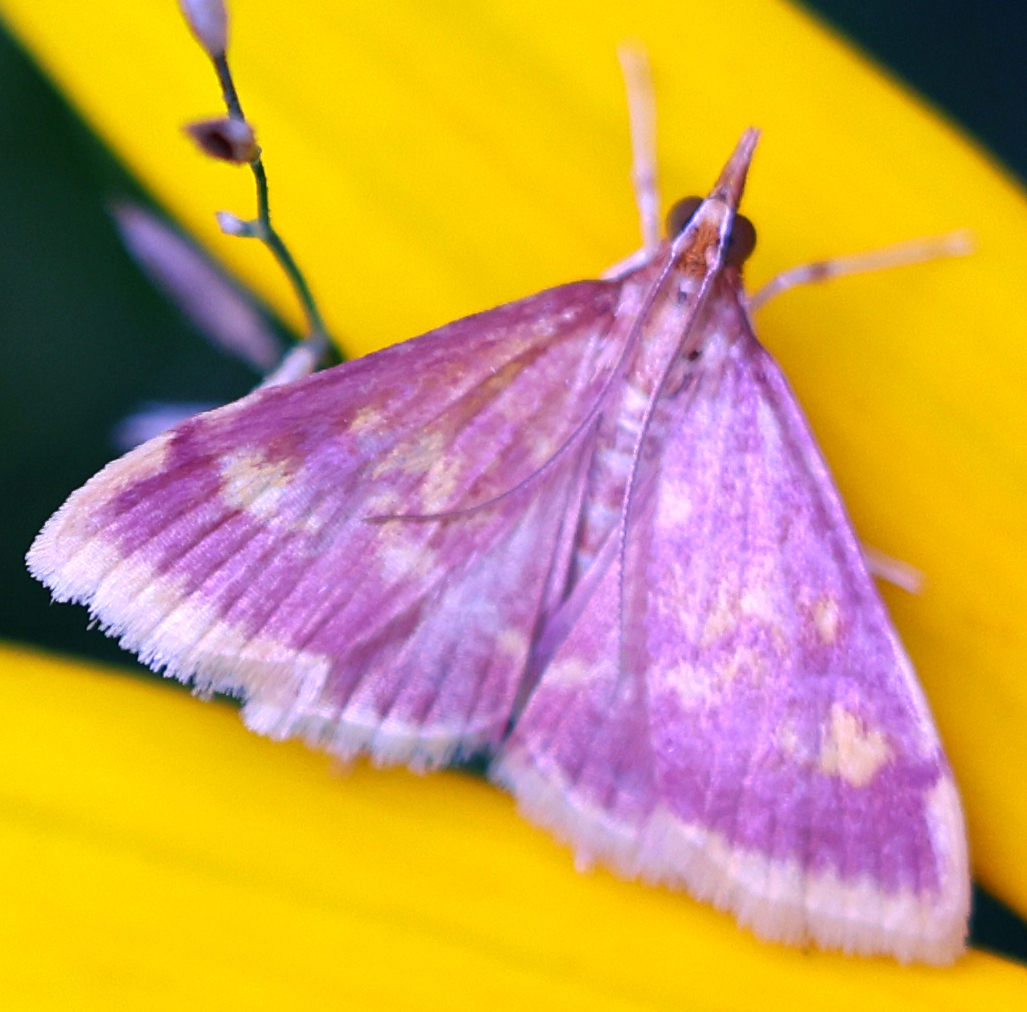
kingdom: Animalia
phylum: Arthropoda
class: Insecta
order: Lepidoptera
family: Crambidae
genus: Pyrausta
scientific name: Pyrausta acrionalis
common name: Mint-loving pyrausta moth
